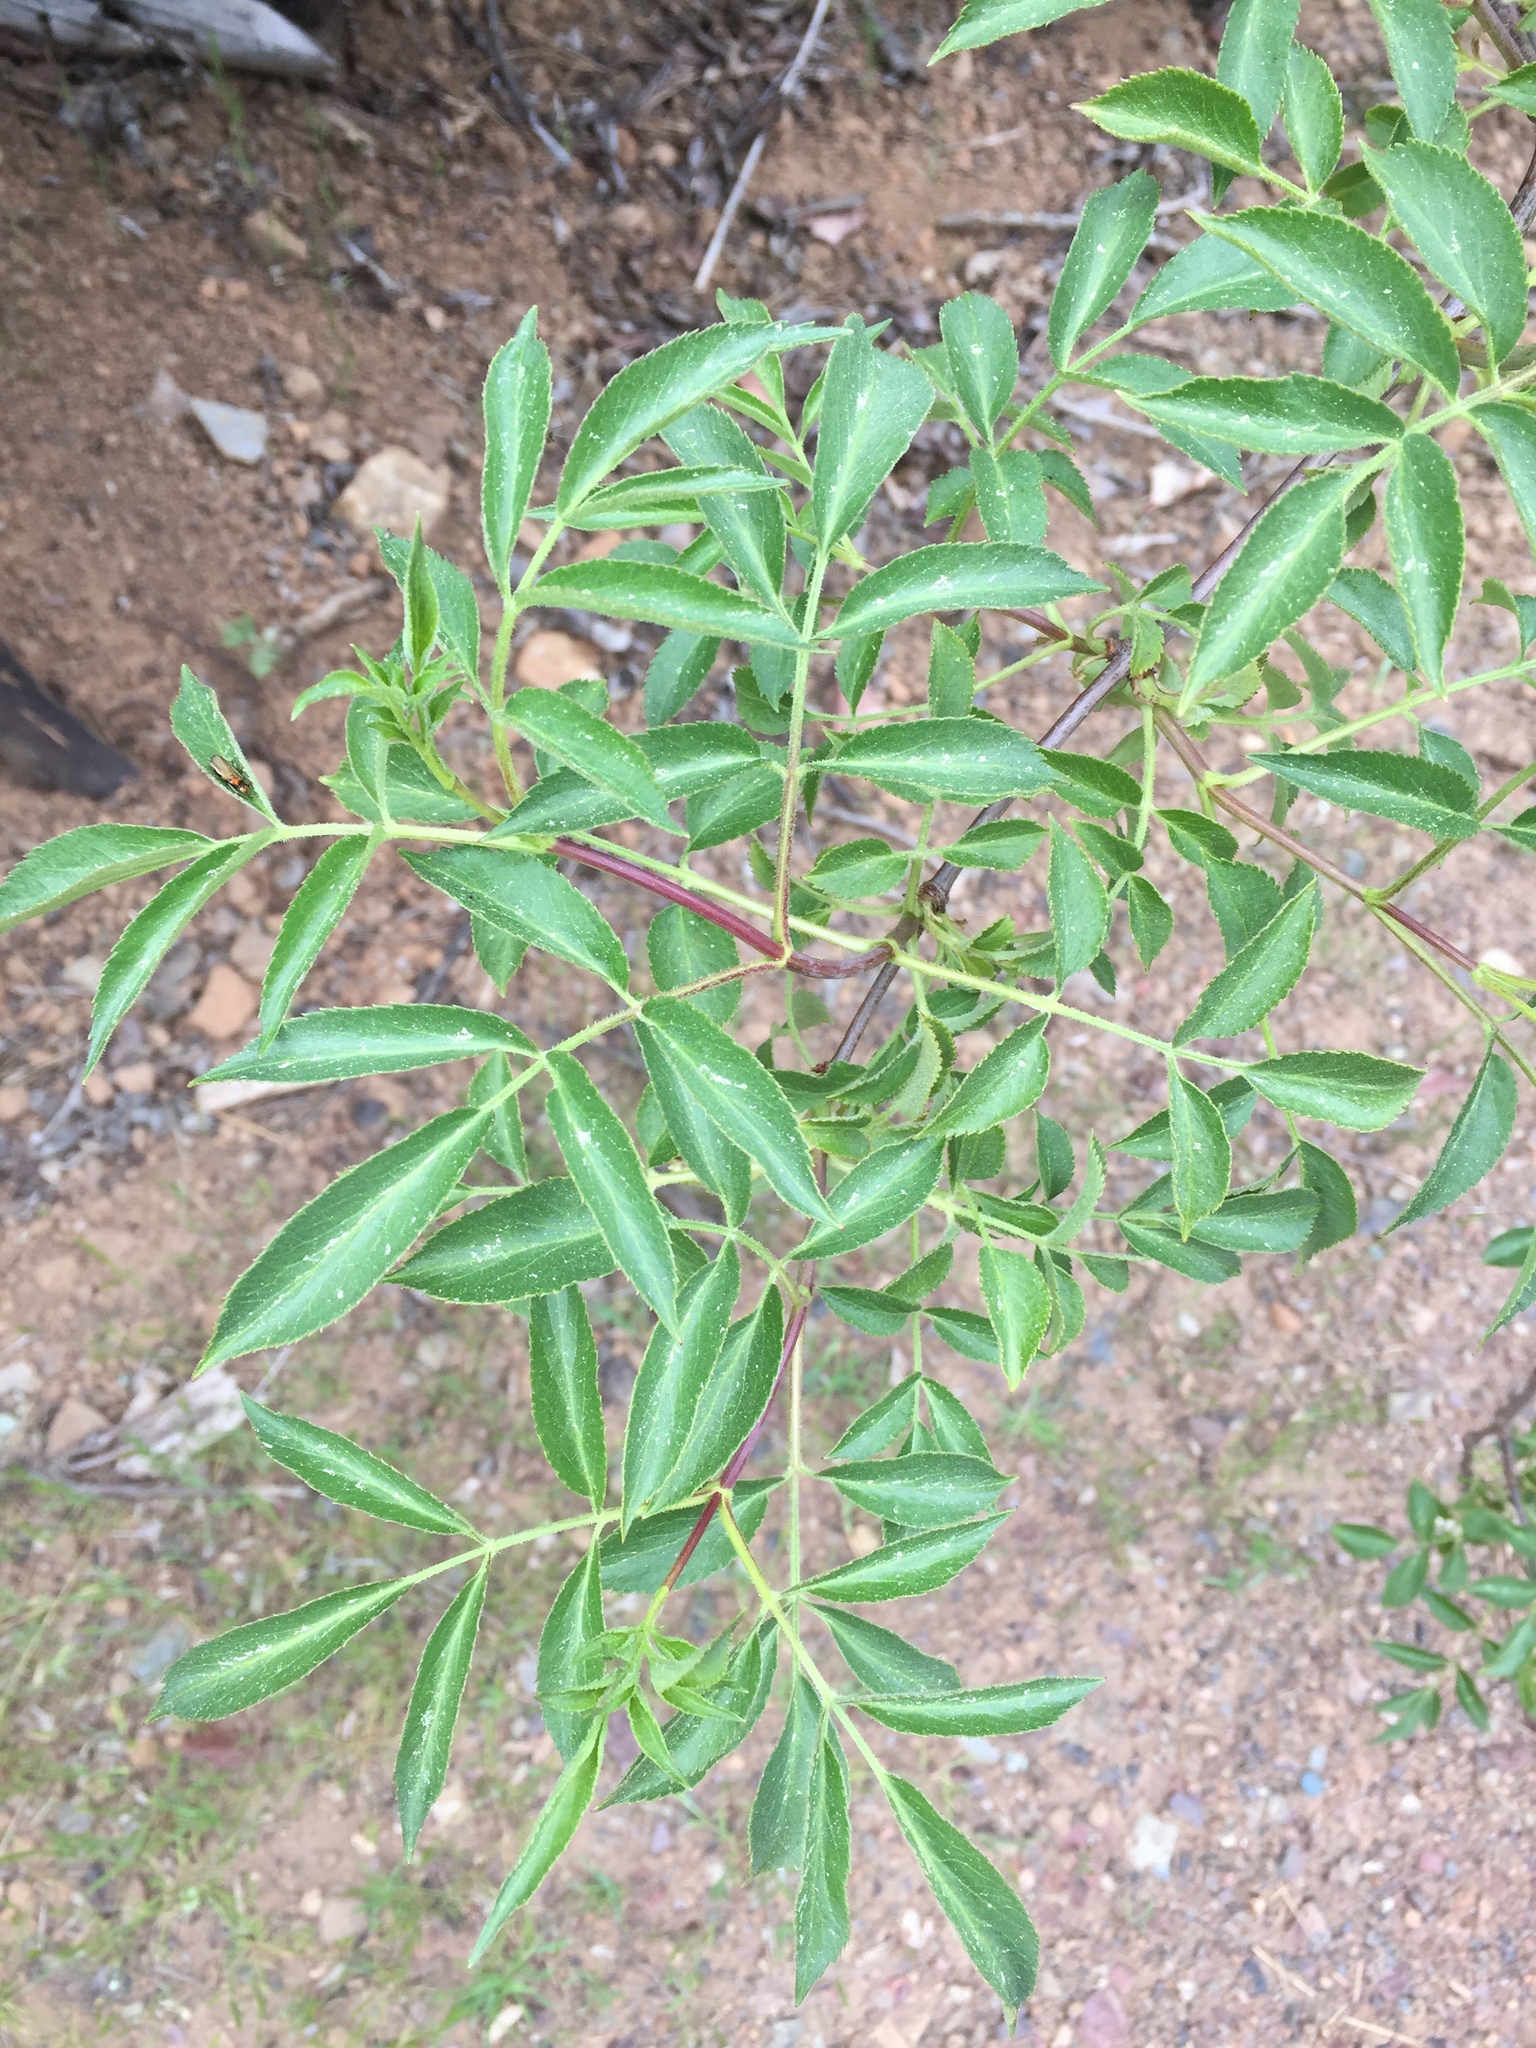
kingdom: Plantae
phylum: Tracheophyta
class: Magnoliopsida
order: Dipsacales
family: Viburnaceae
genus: Sambucus
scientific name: Sambucus cerulea
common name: Blue elder
